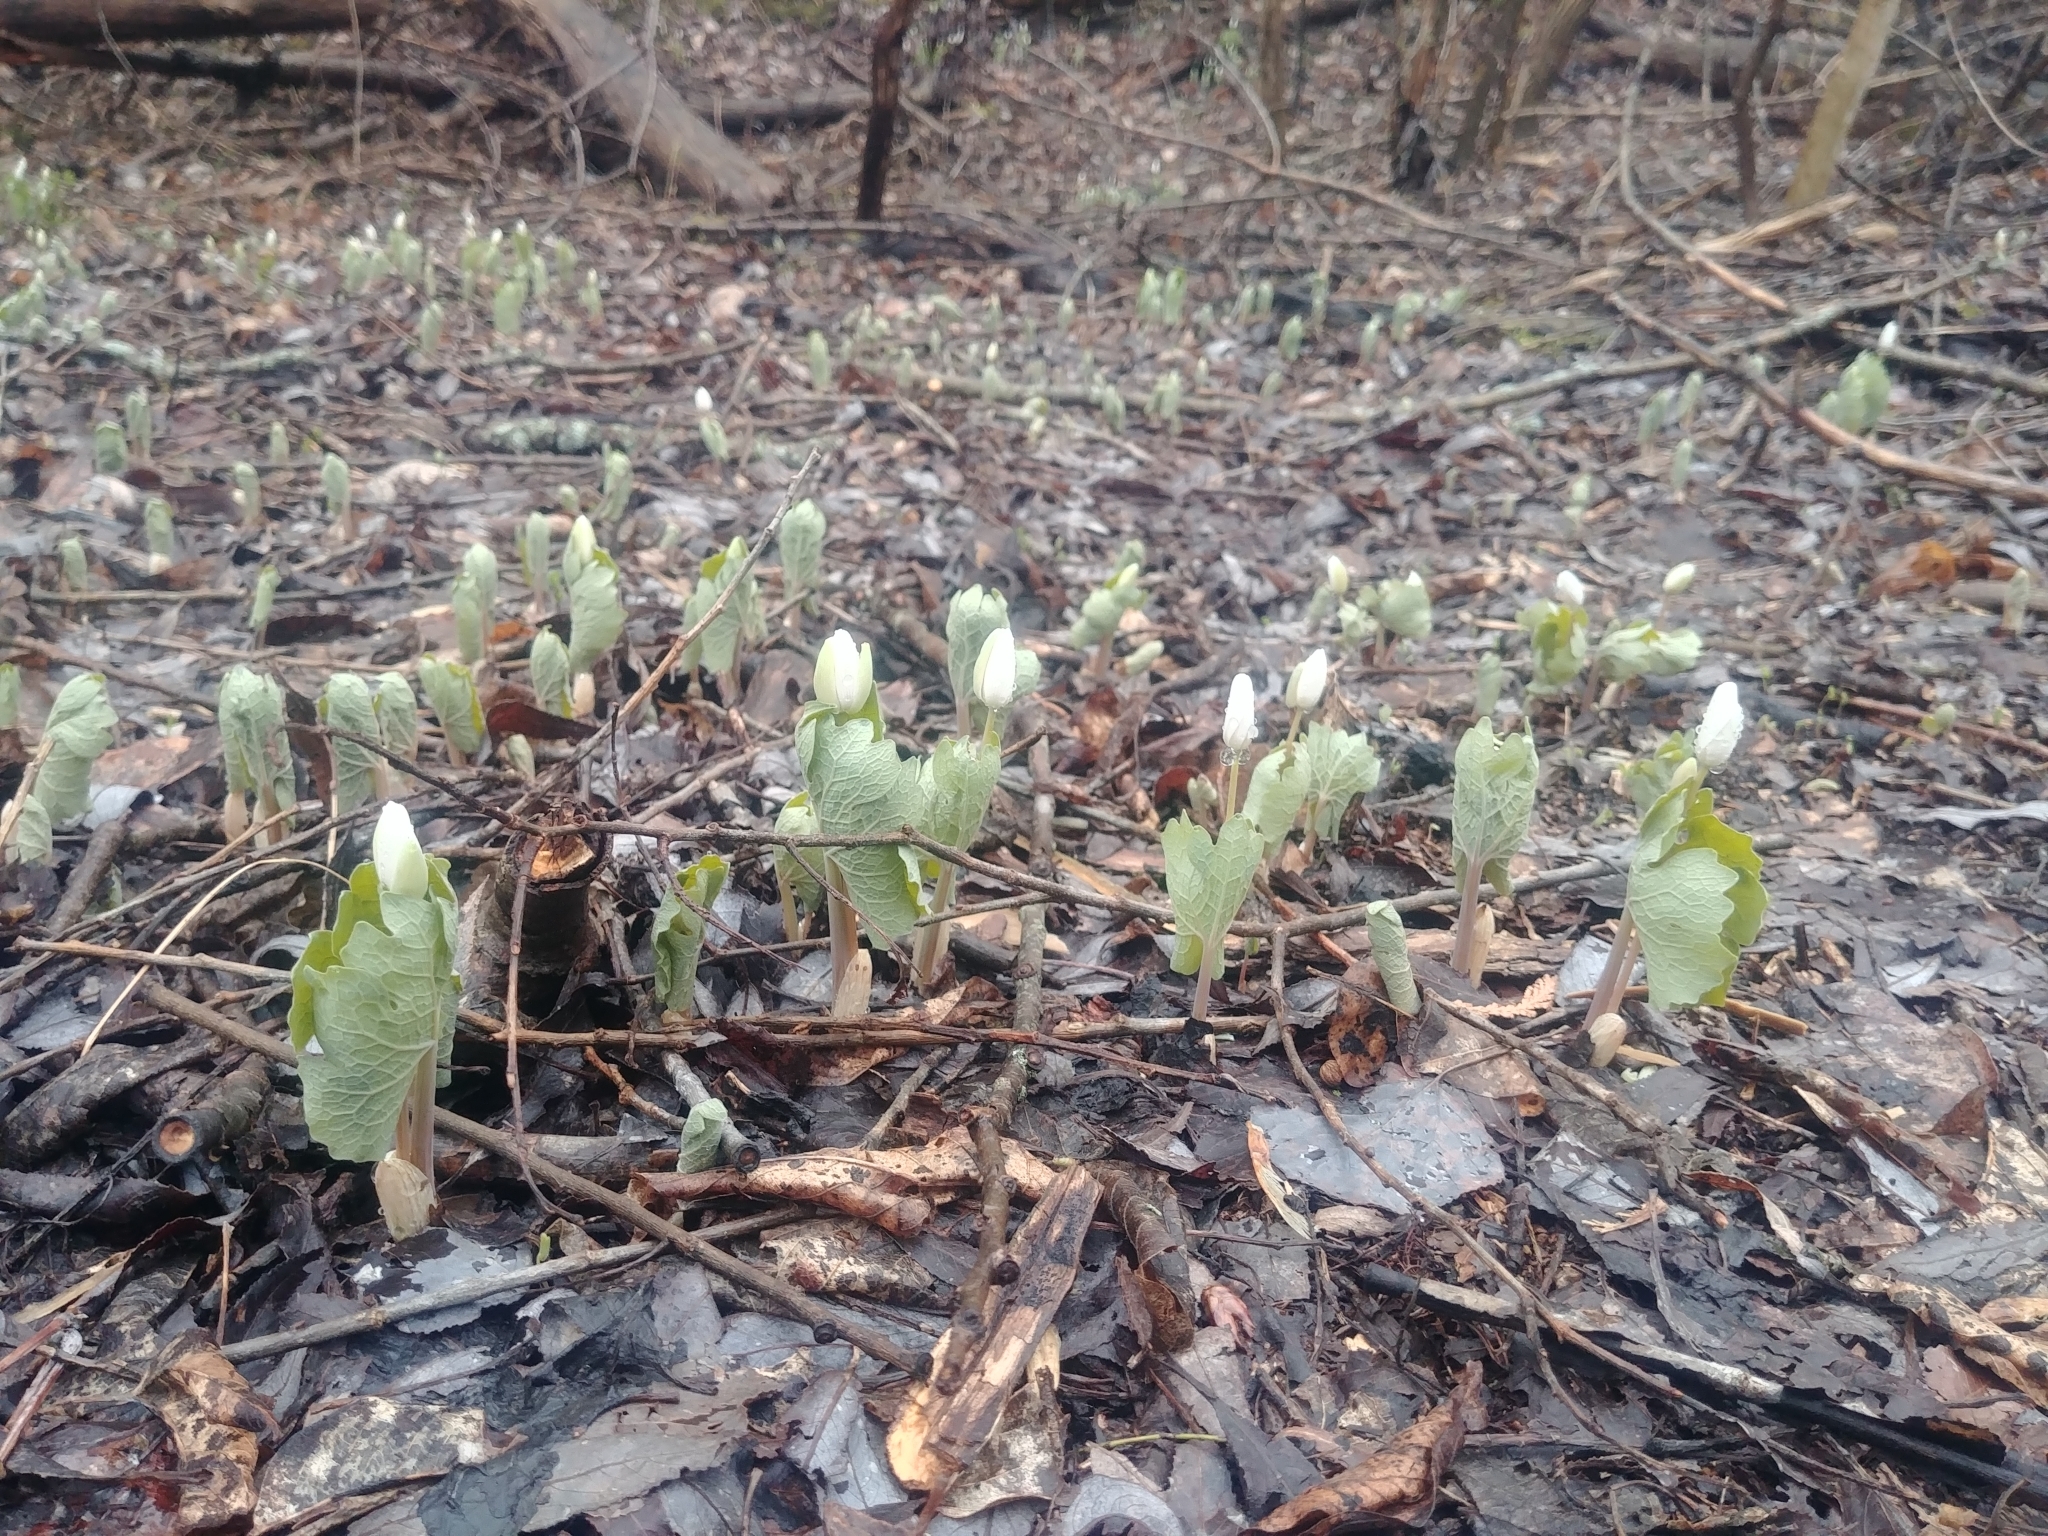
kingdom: Plantae
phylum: Tracheophyta
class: Magnoliopsida
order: Ranunculales
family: Papaveraceae
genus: Sanguinaria
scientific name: Sanguinaria canadensis
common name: Bloodroot
